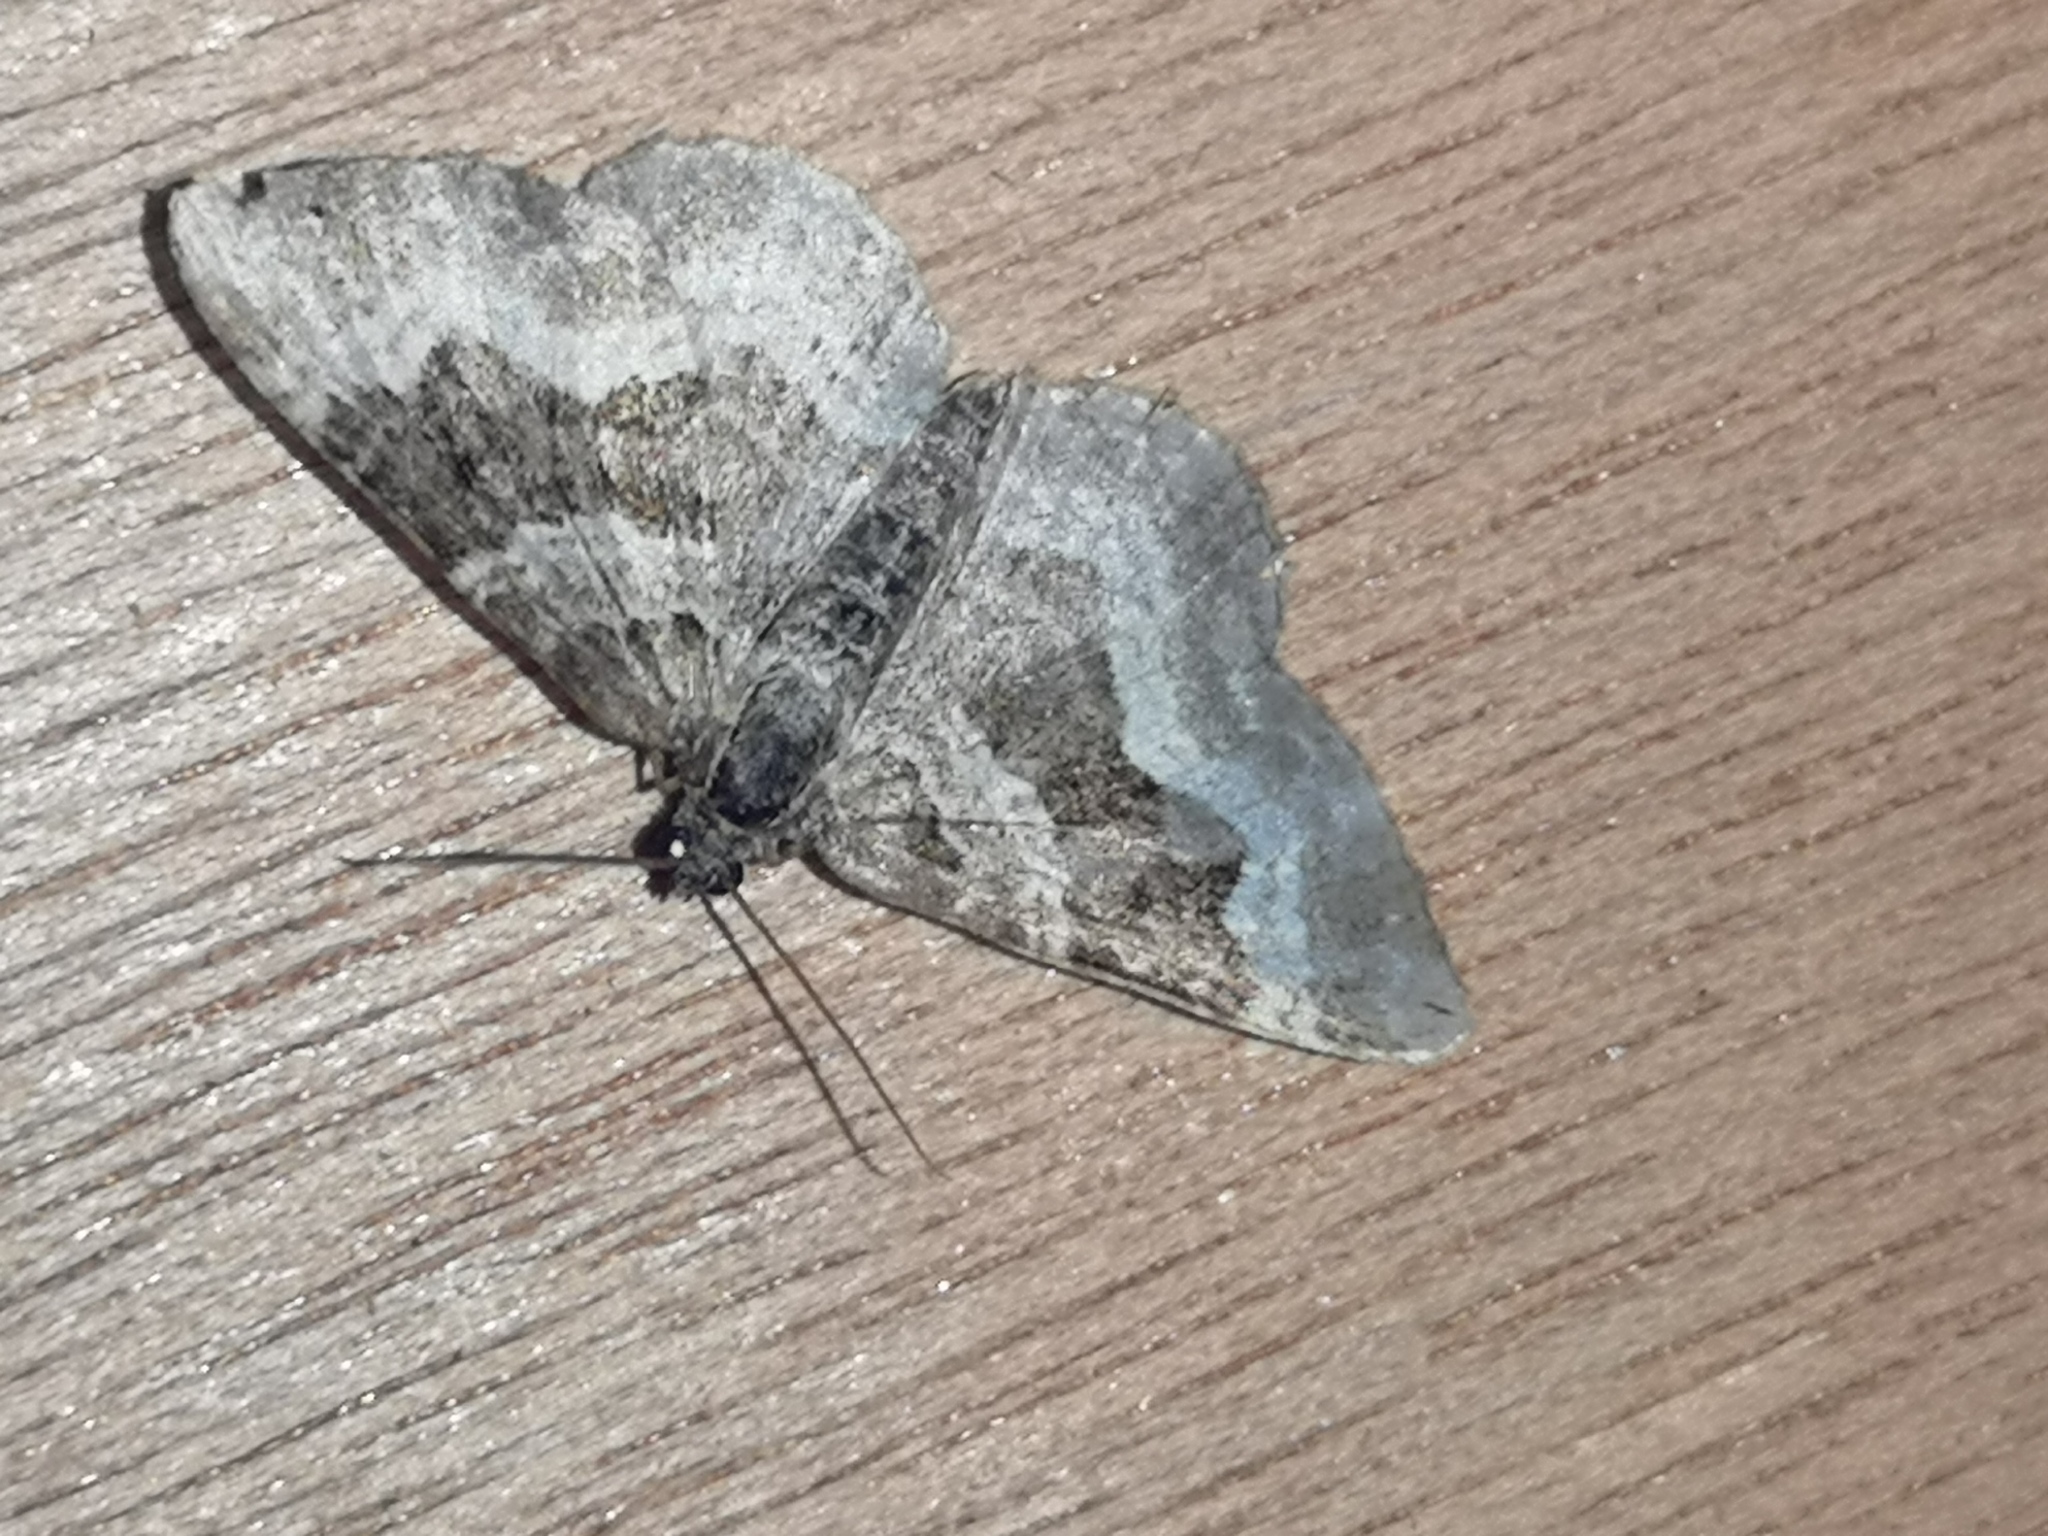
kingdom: Animalia
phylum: Arthropoda
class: Insecta
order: Lepidoptera
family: Geometridae
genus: Epirrhoe
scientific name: Epirrhoe alternata
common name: Common carpet
